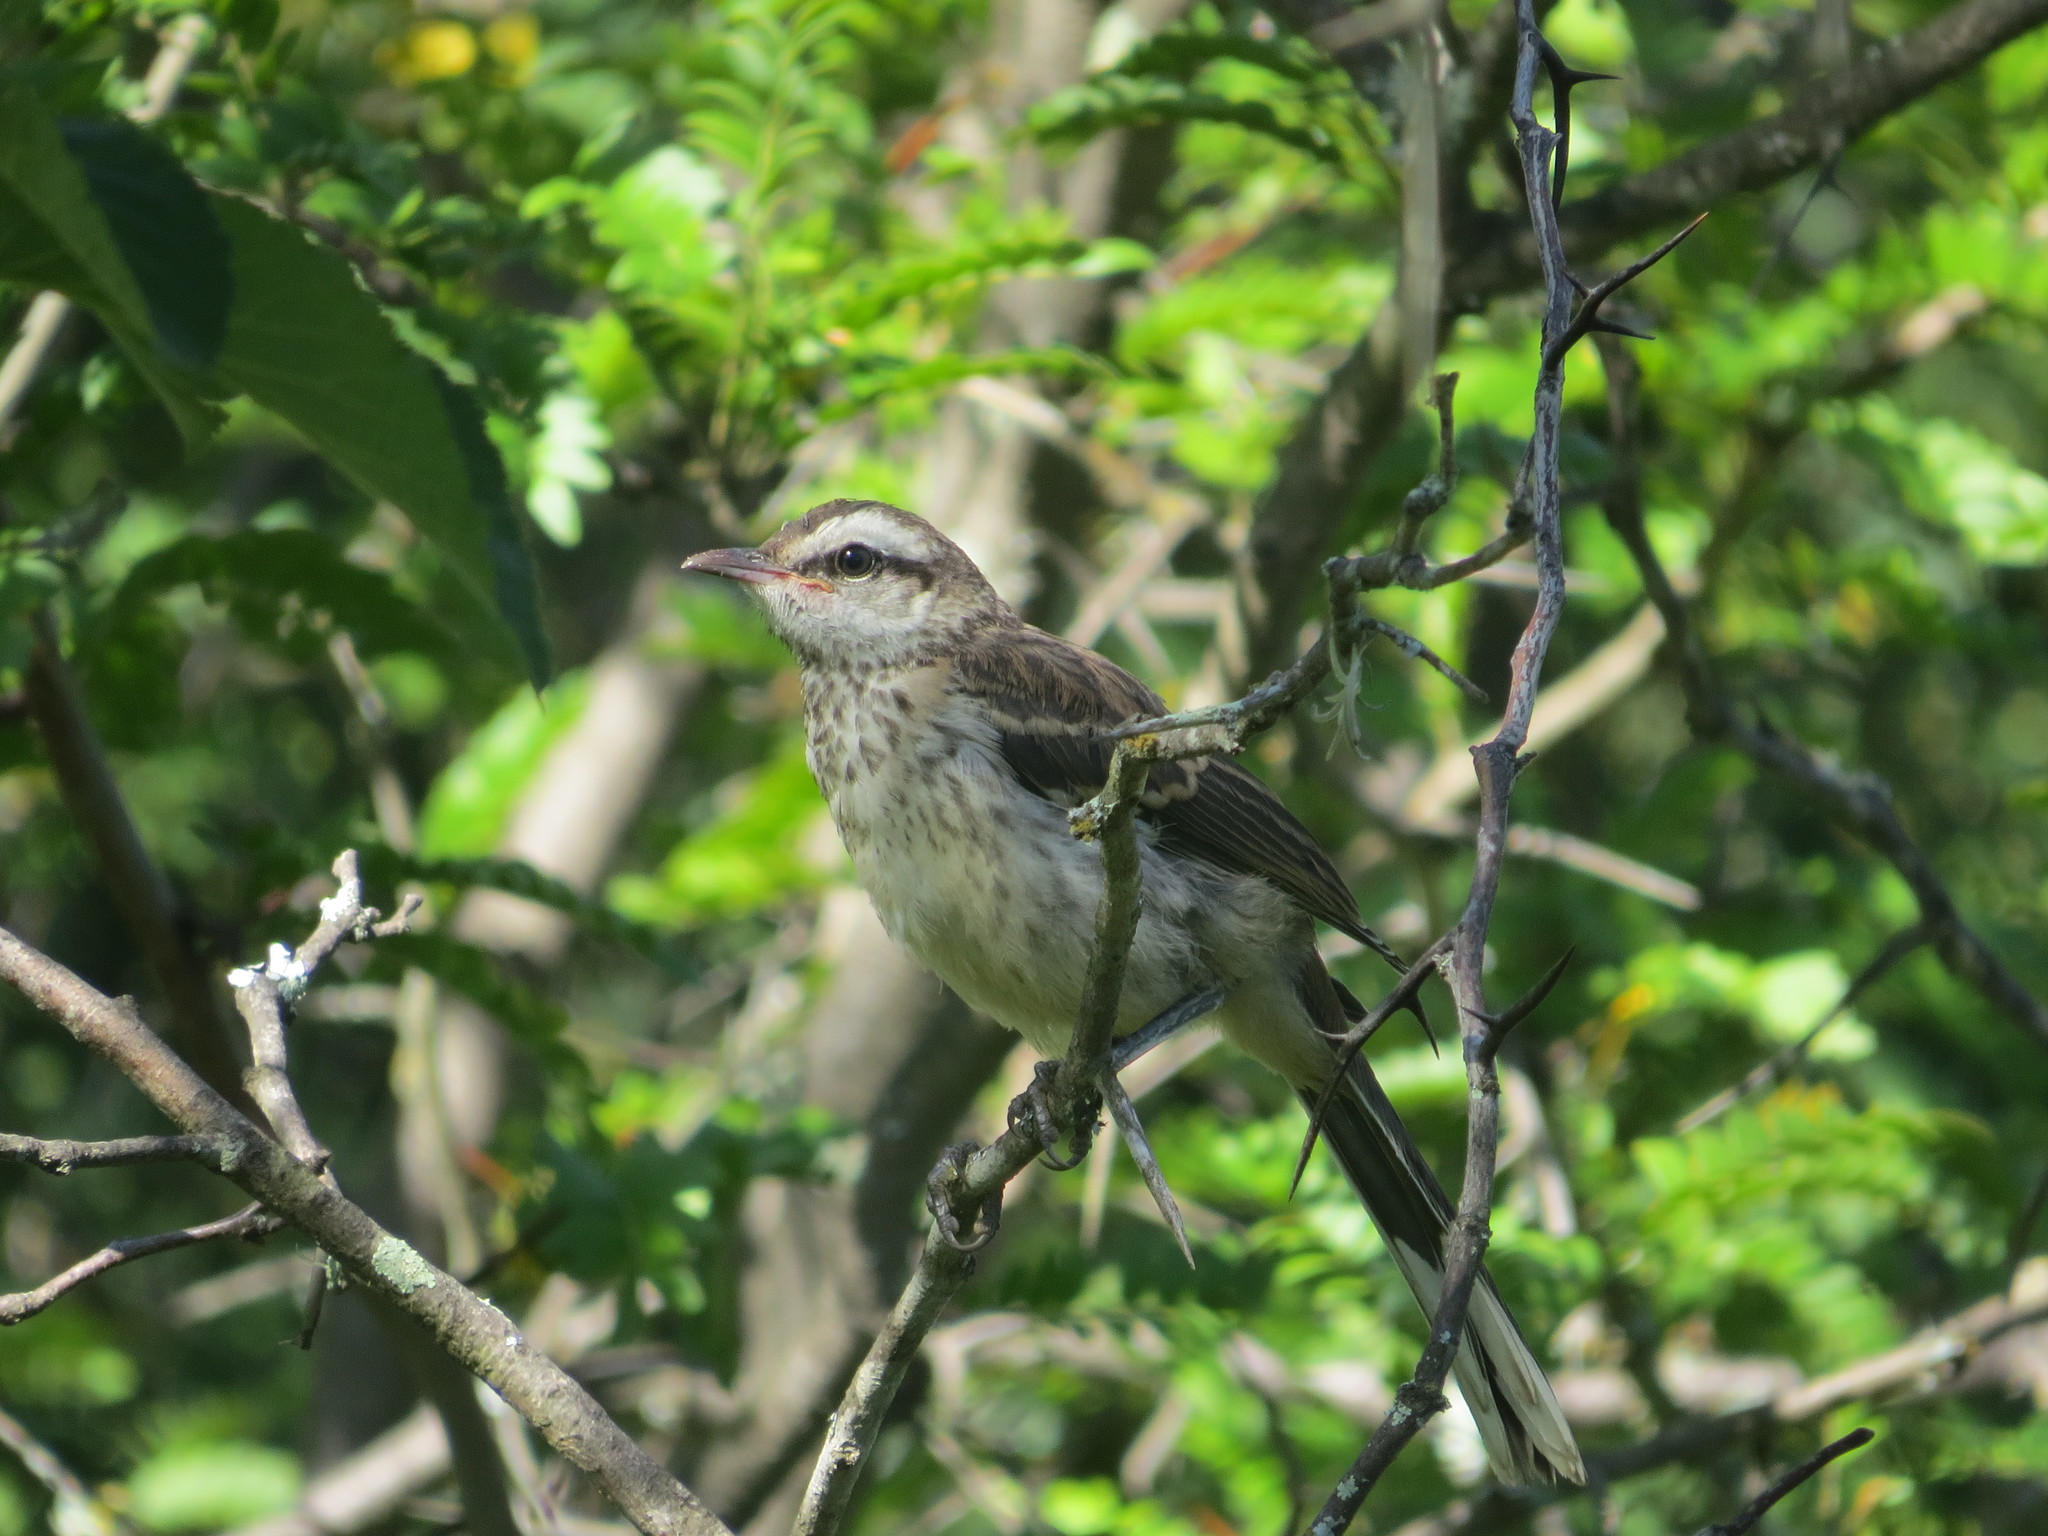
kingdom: Animalia
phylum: Chordata
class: Aves
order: Passeriformes
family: Mimidae
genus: Mimus
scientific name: Mimus saturninus
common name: Chalk-browed mockingbird
